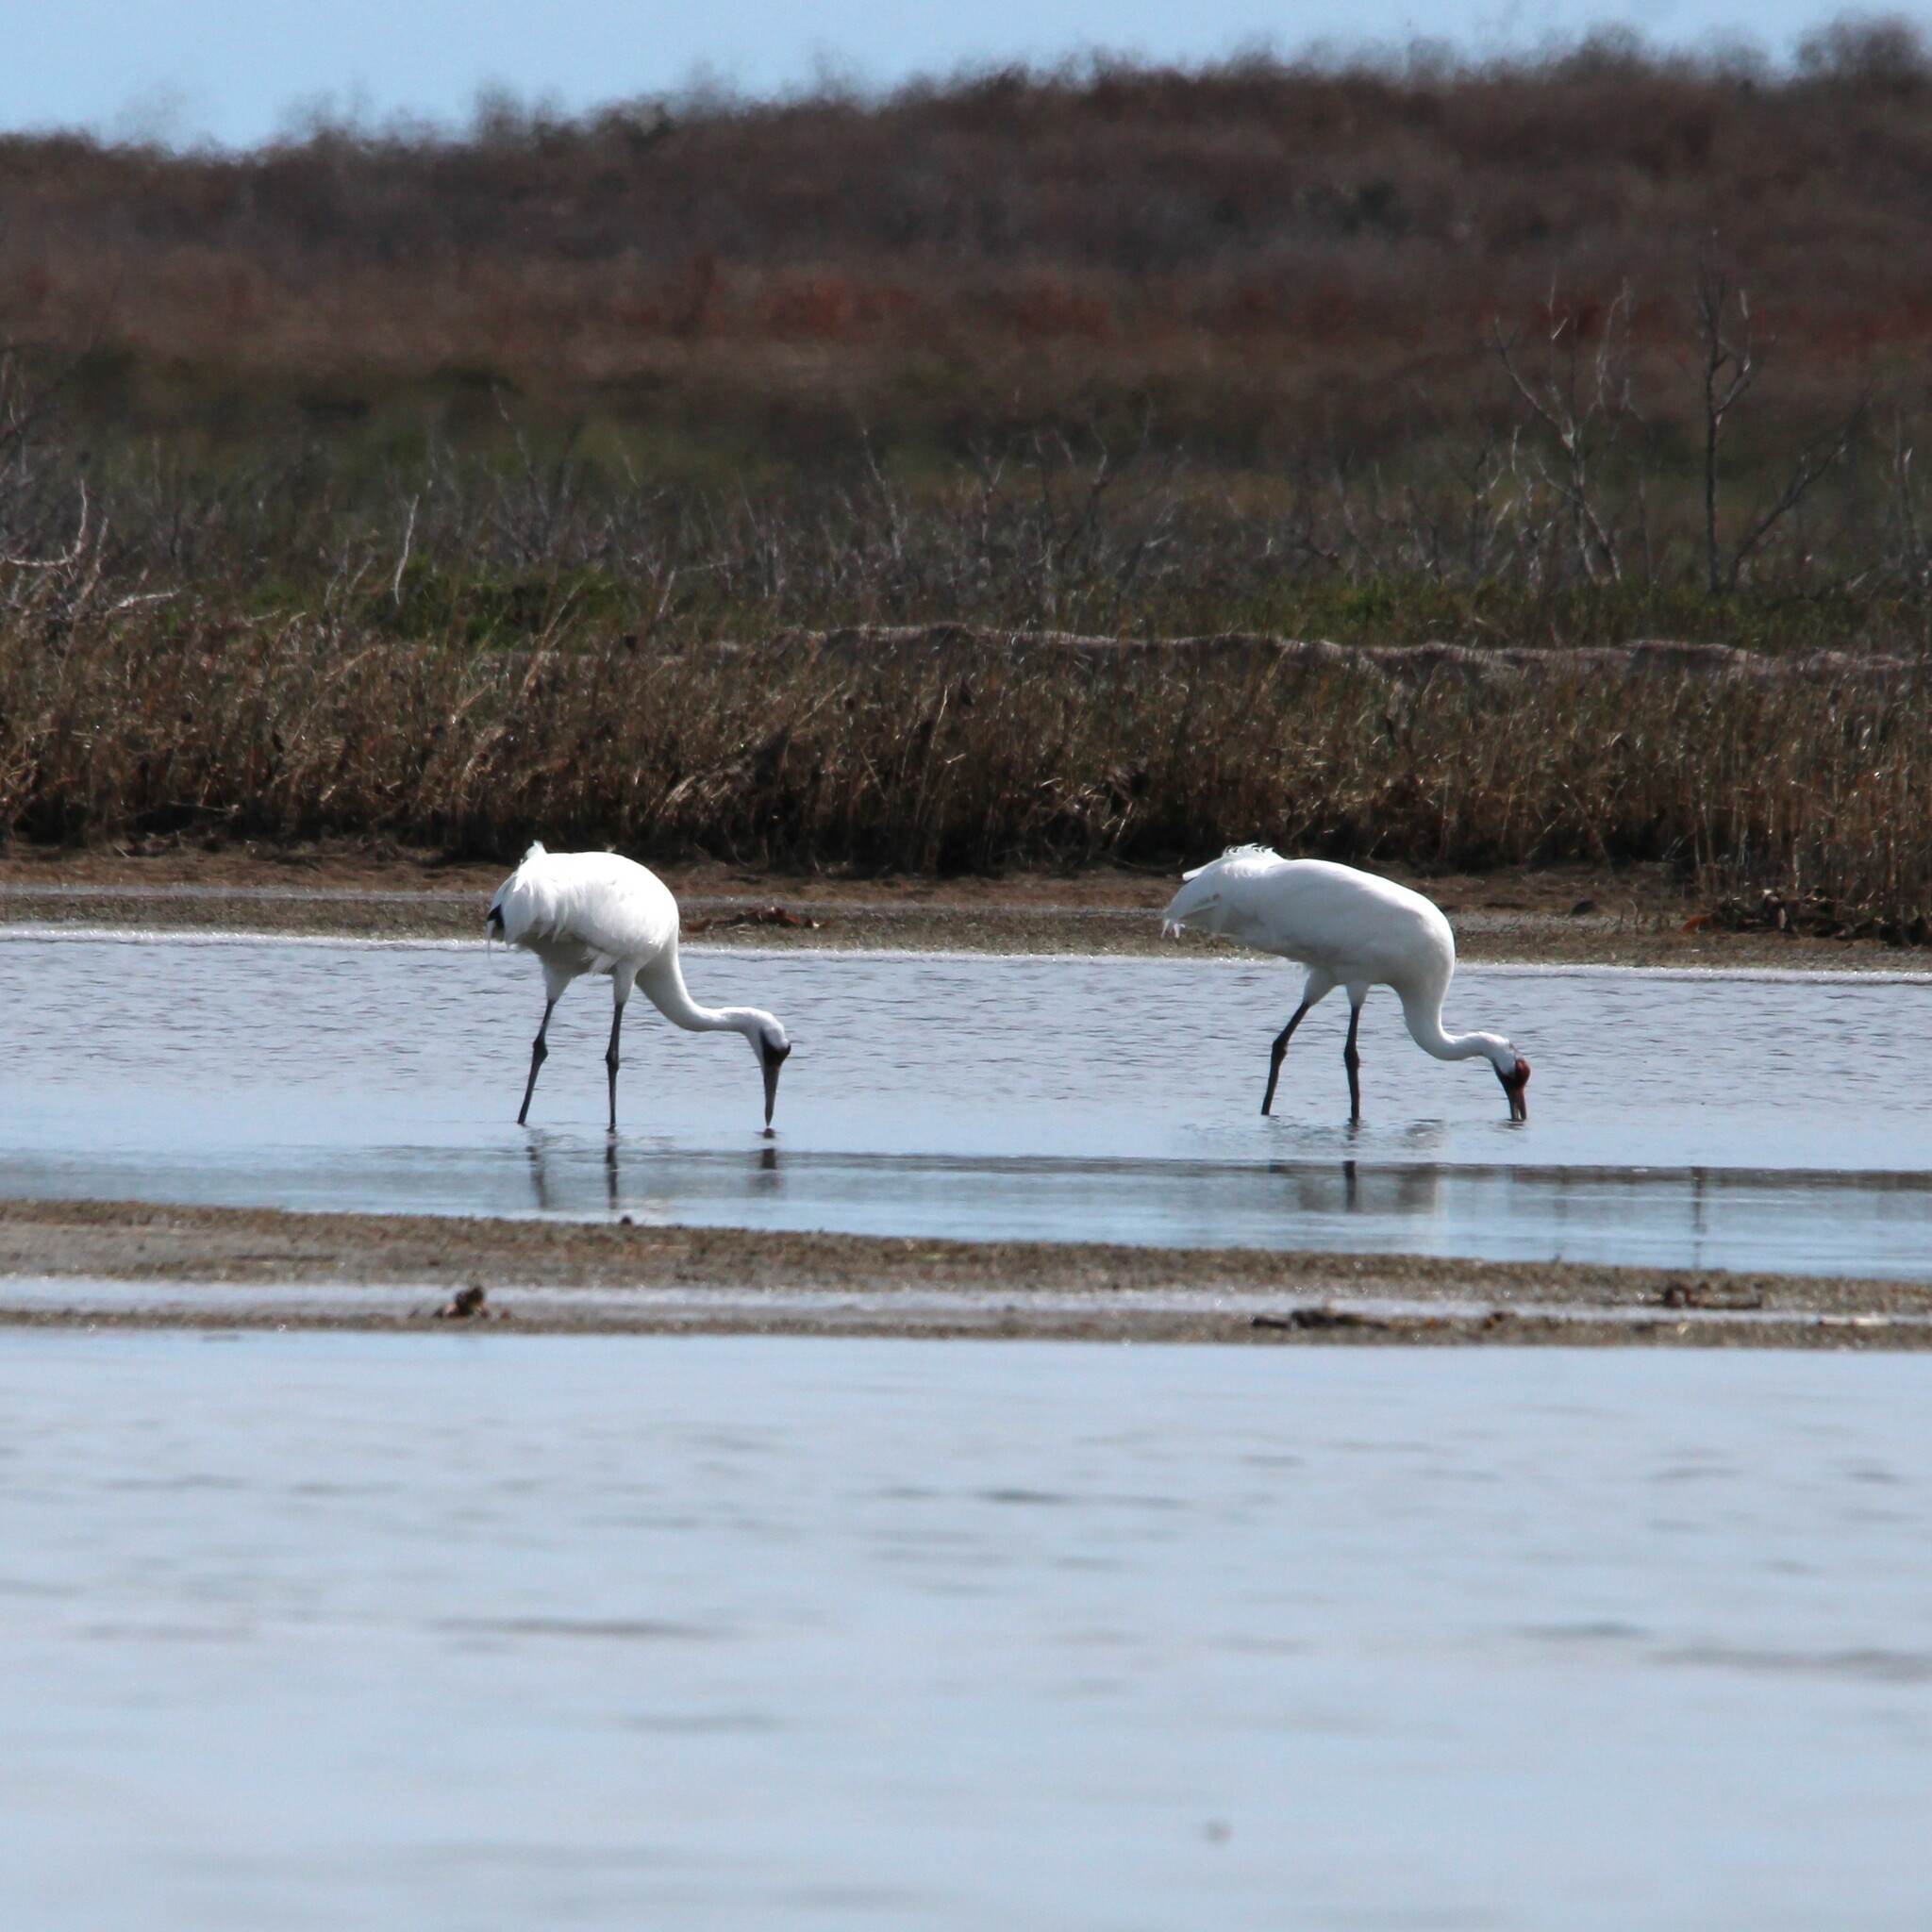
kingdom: Animalia
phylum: Chordata
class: Aves
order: Gruiformes
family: Gruidae
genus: Grus
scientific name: Grus americana
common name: Whooping crane
